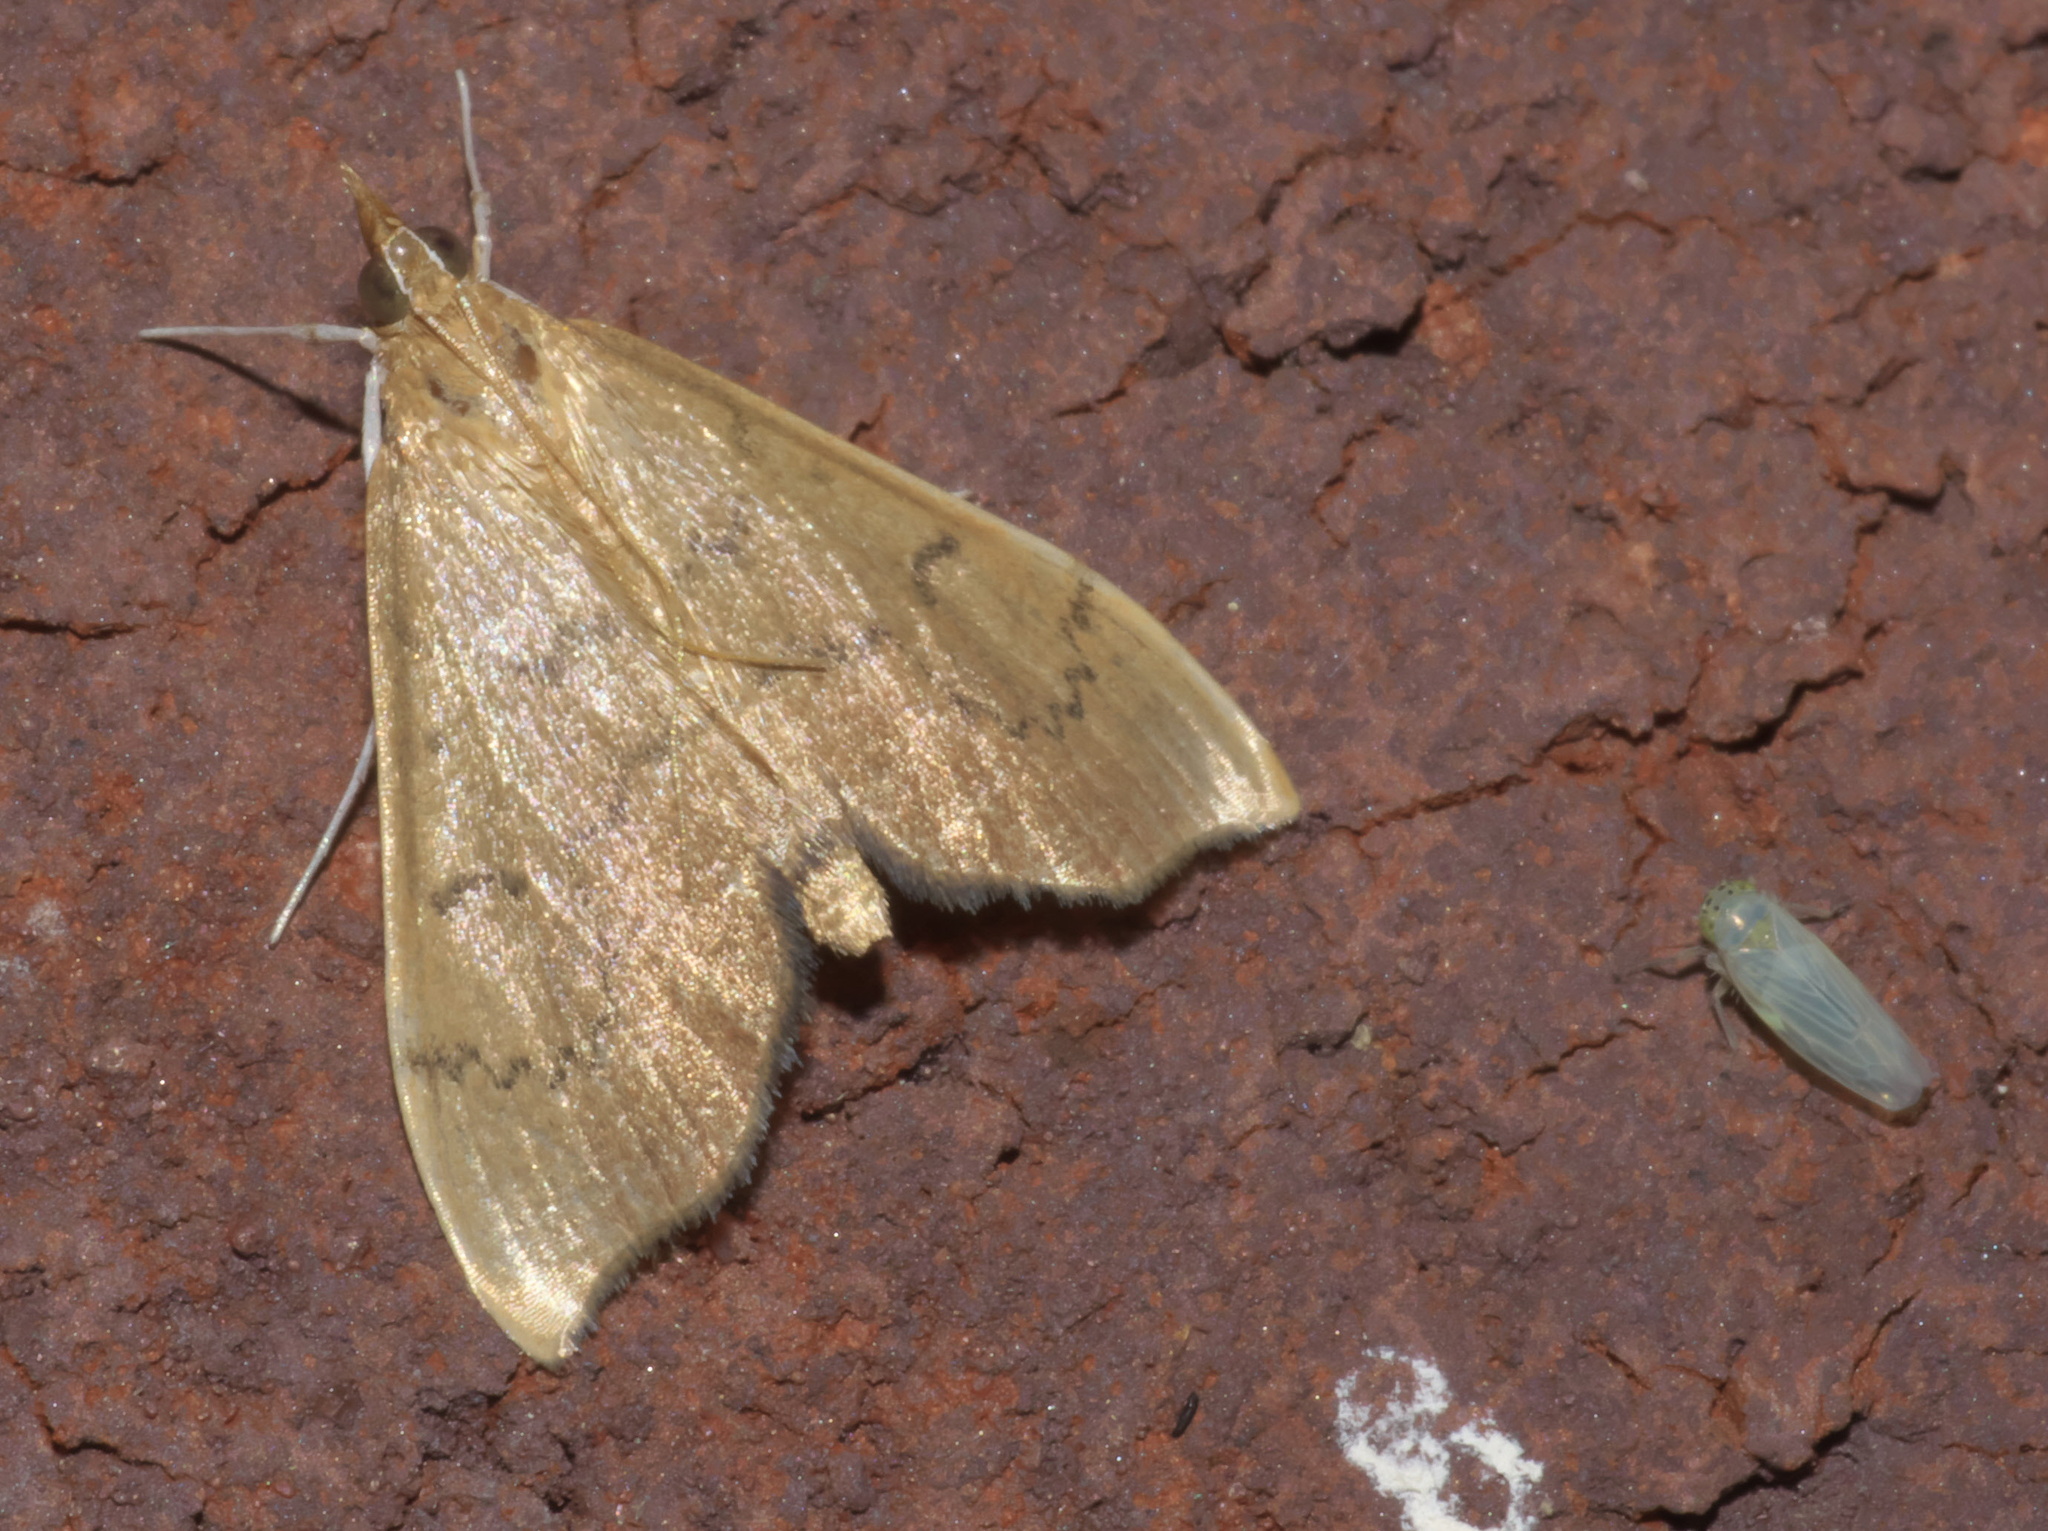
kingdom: Animalia
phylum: Arthropoda
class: Insecta
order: Lepidoptera
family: Crambidae
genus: Sericoplaga
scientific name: Sericoplaga externalis
